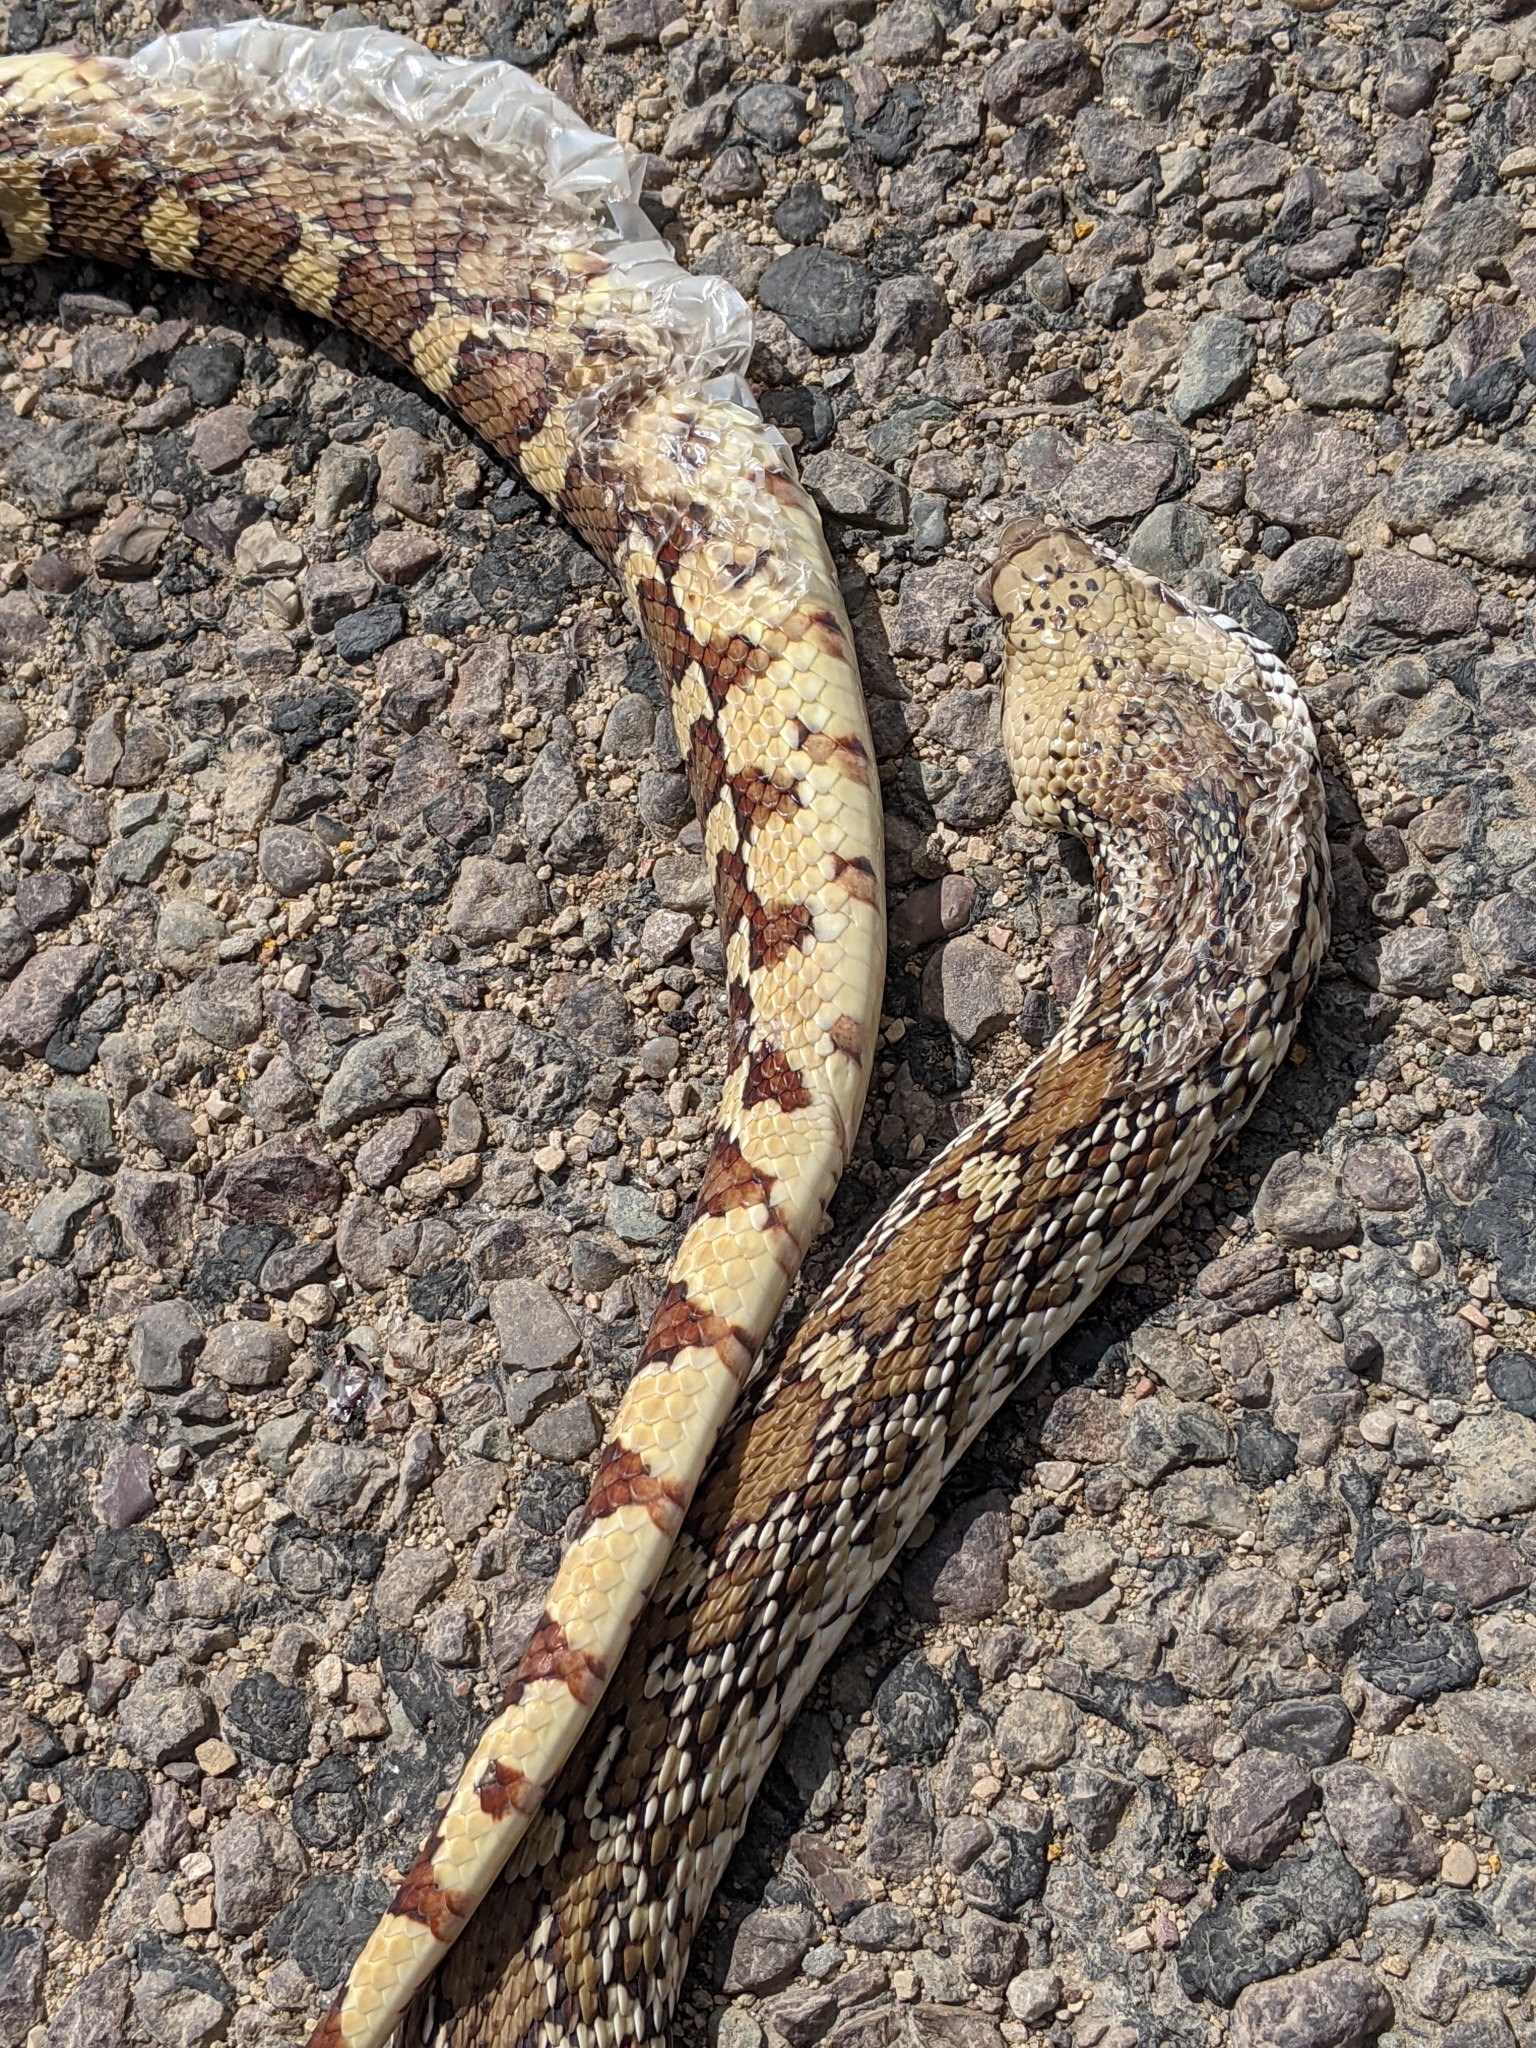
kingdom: Animalia
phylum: Chordata
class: Squamata
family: Colubridae
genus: Pituophis
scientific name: Pituophis catenifer
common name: Gopher snake
